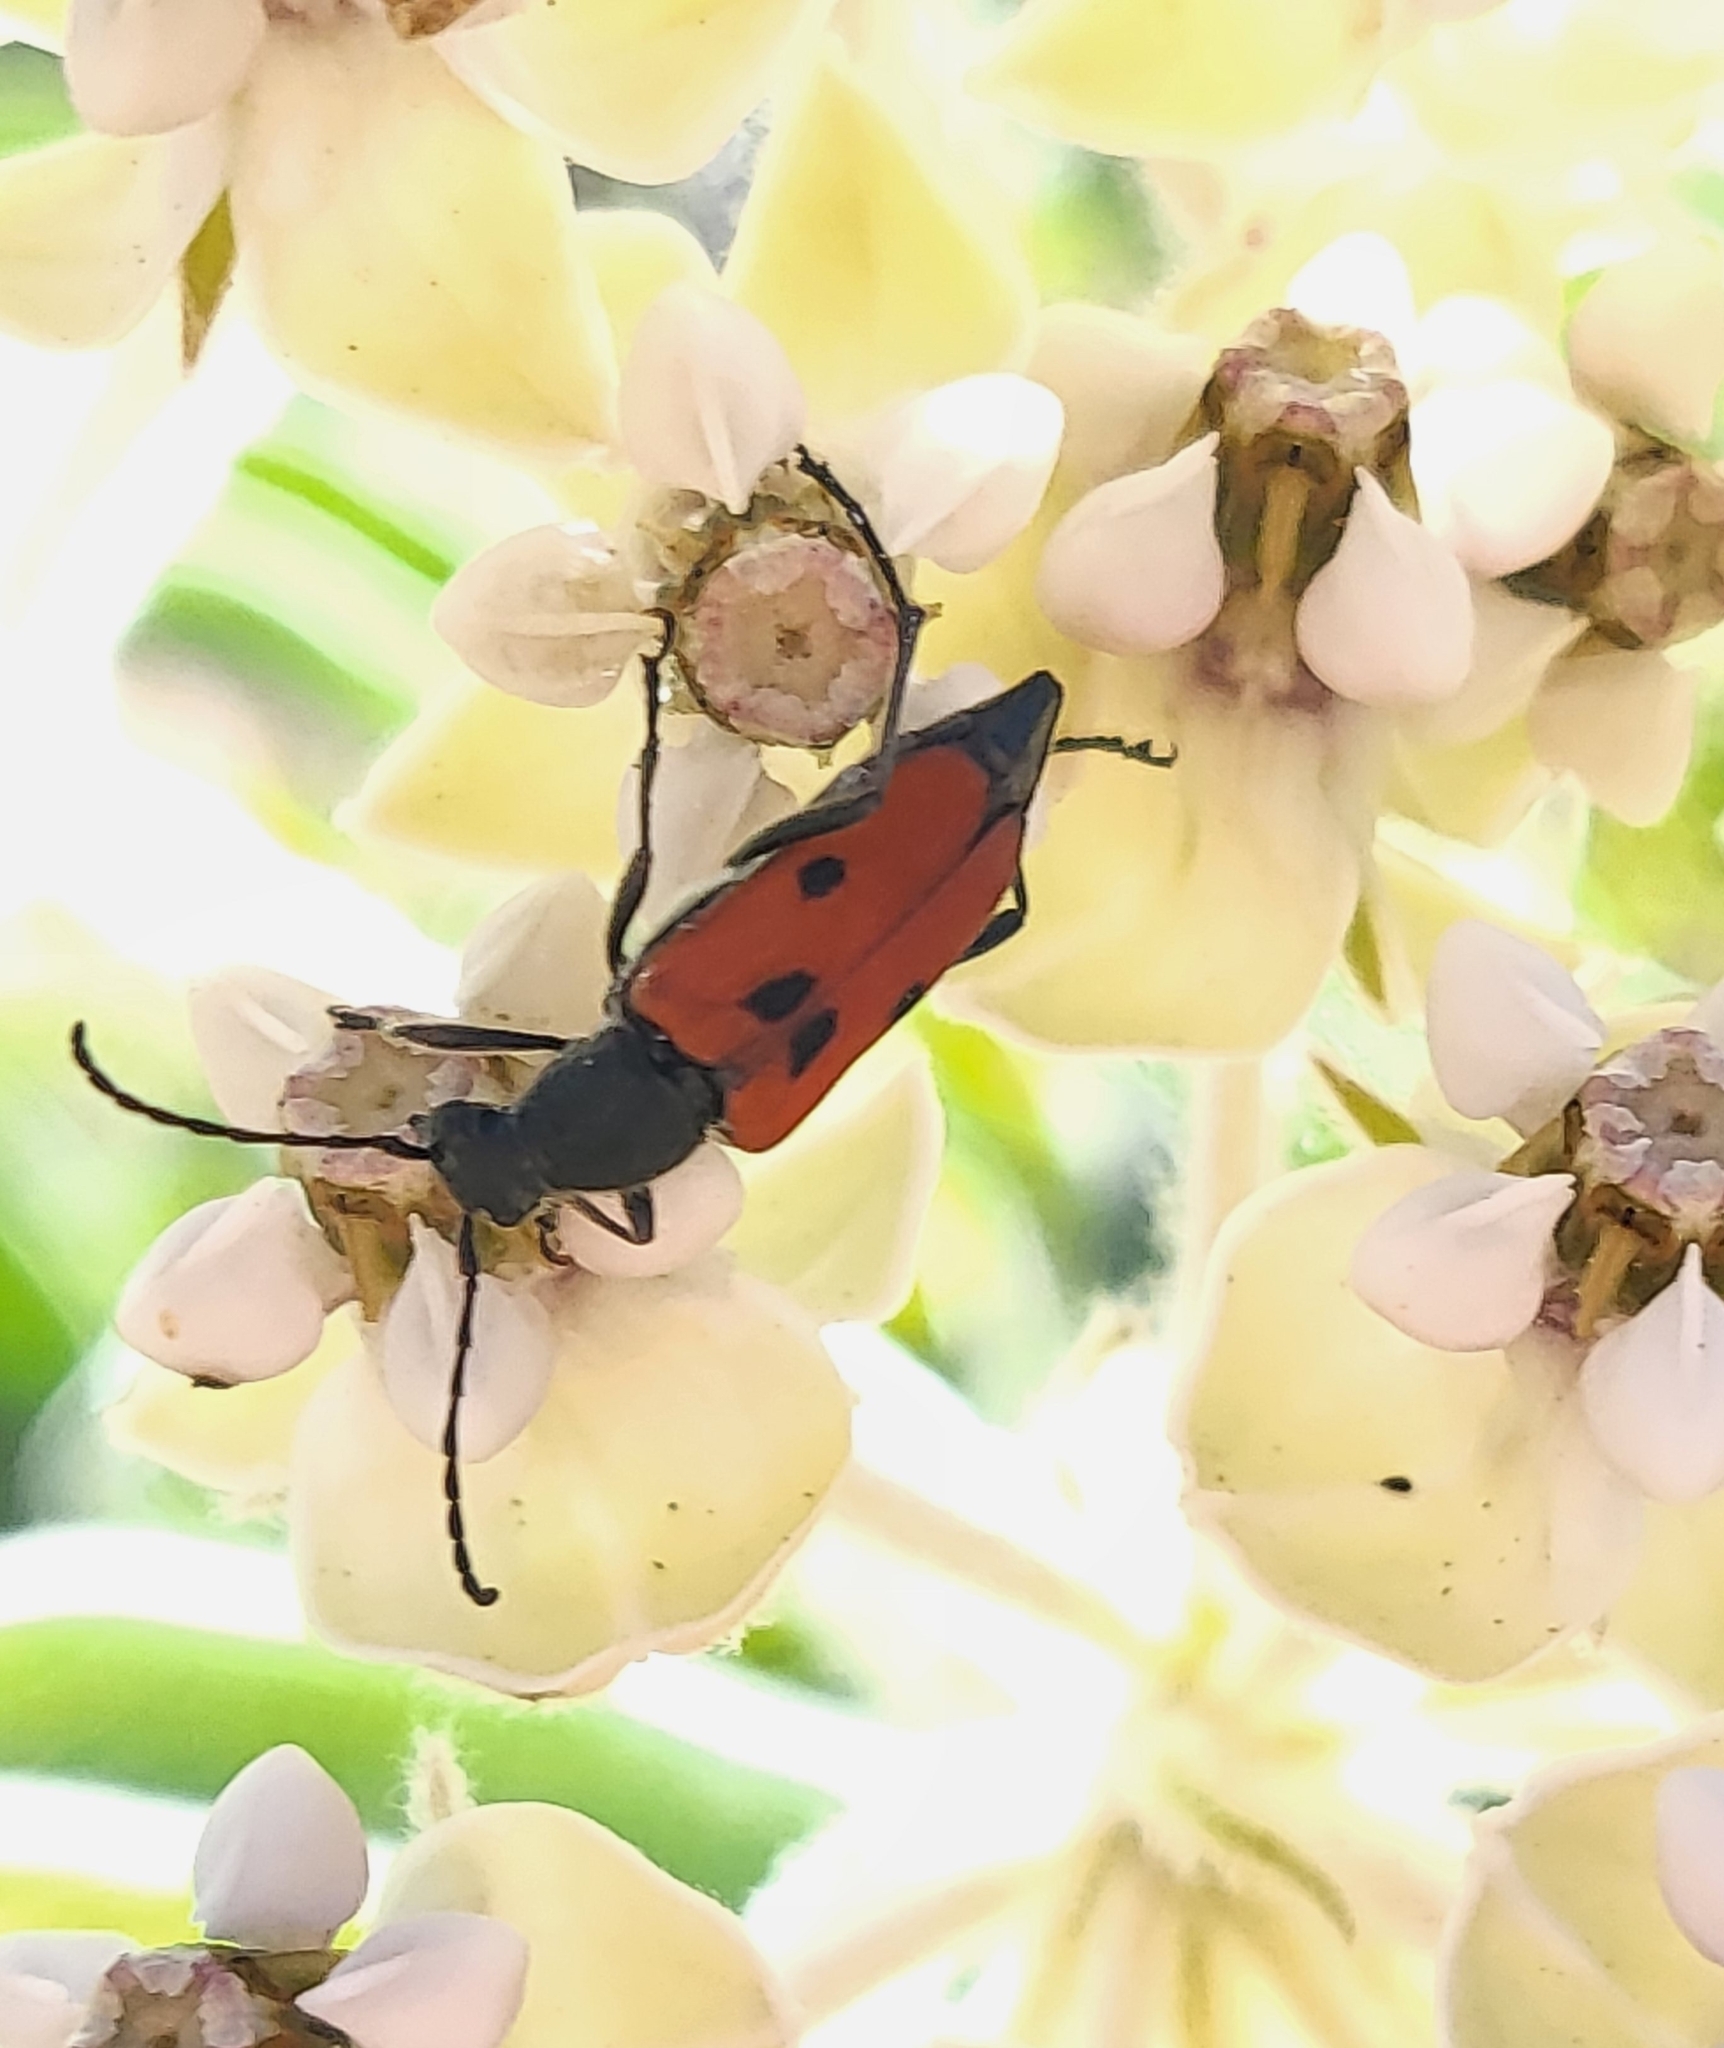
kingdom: Animalia
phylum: Arthropoda
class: Insecta
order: Coleoptera
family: Cerambycidae
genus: Anastrangalia
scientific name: Anastrangalia laetifica
